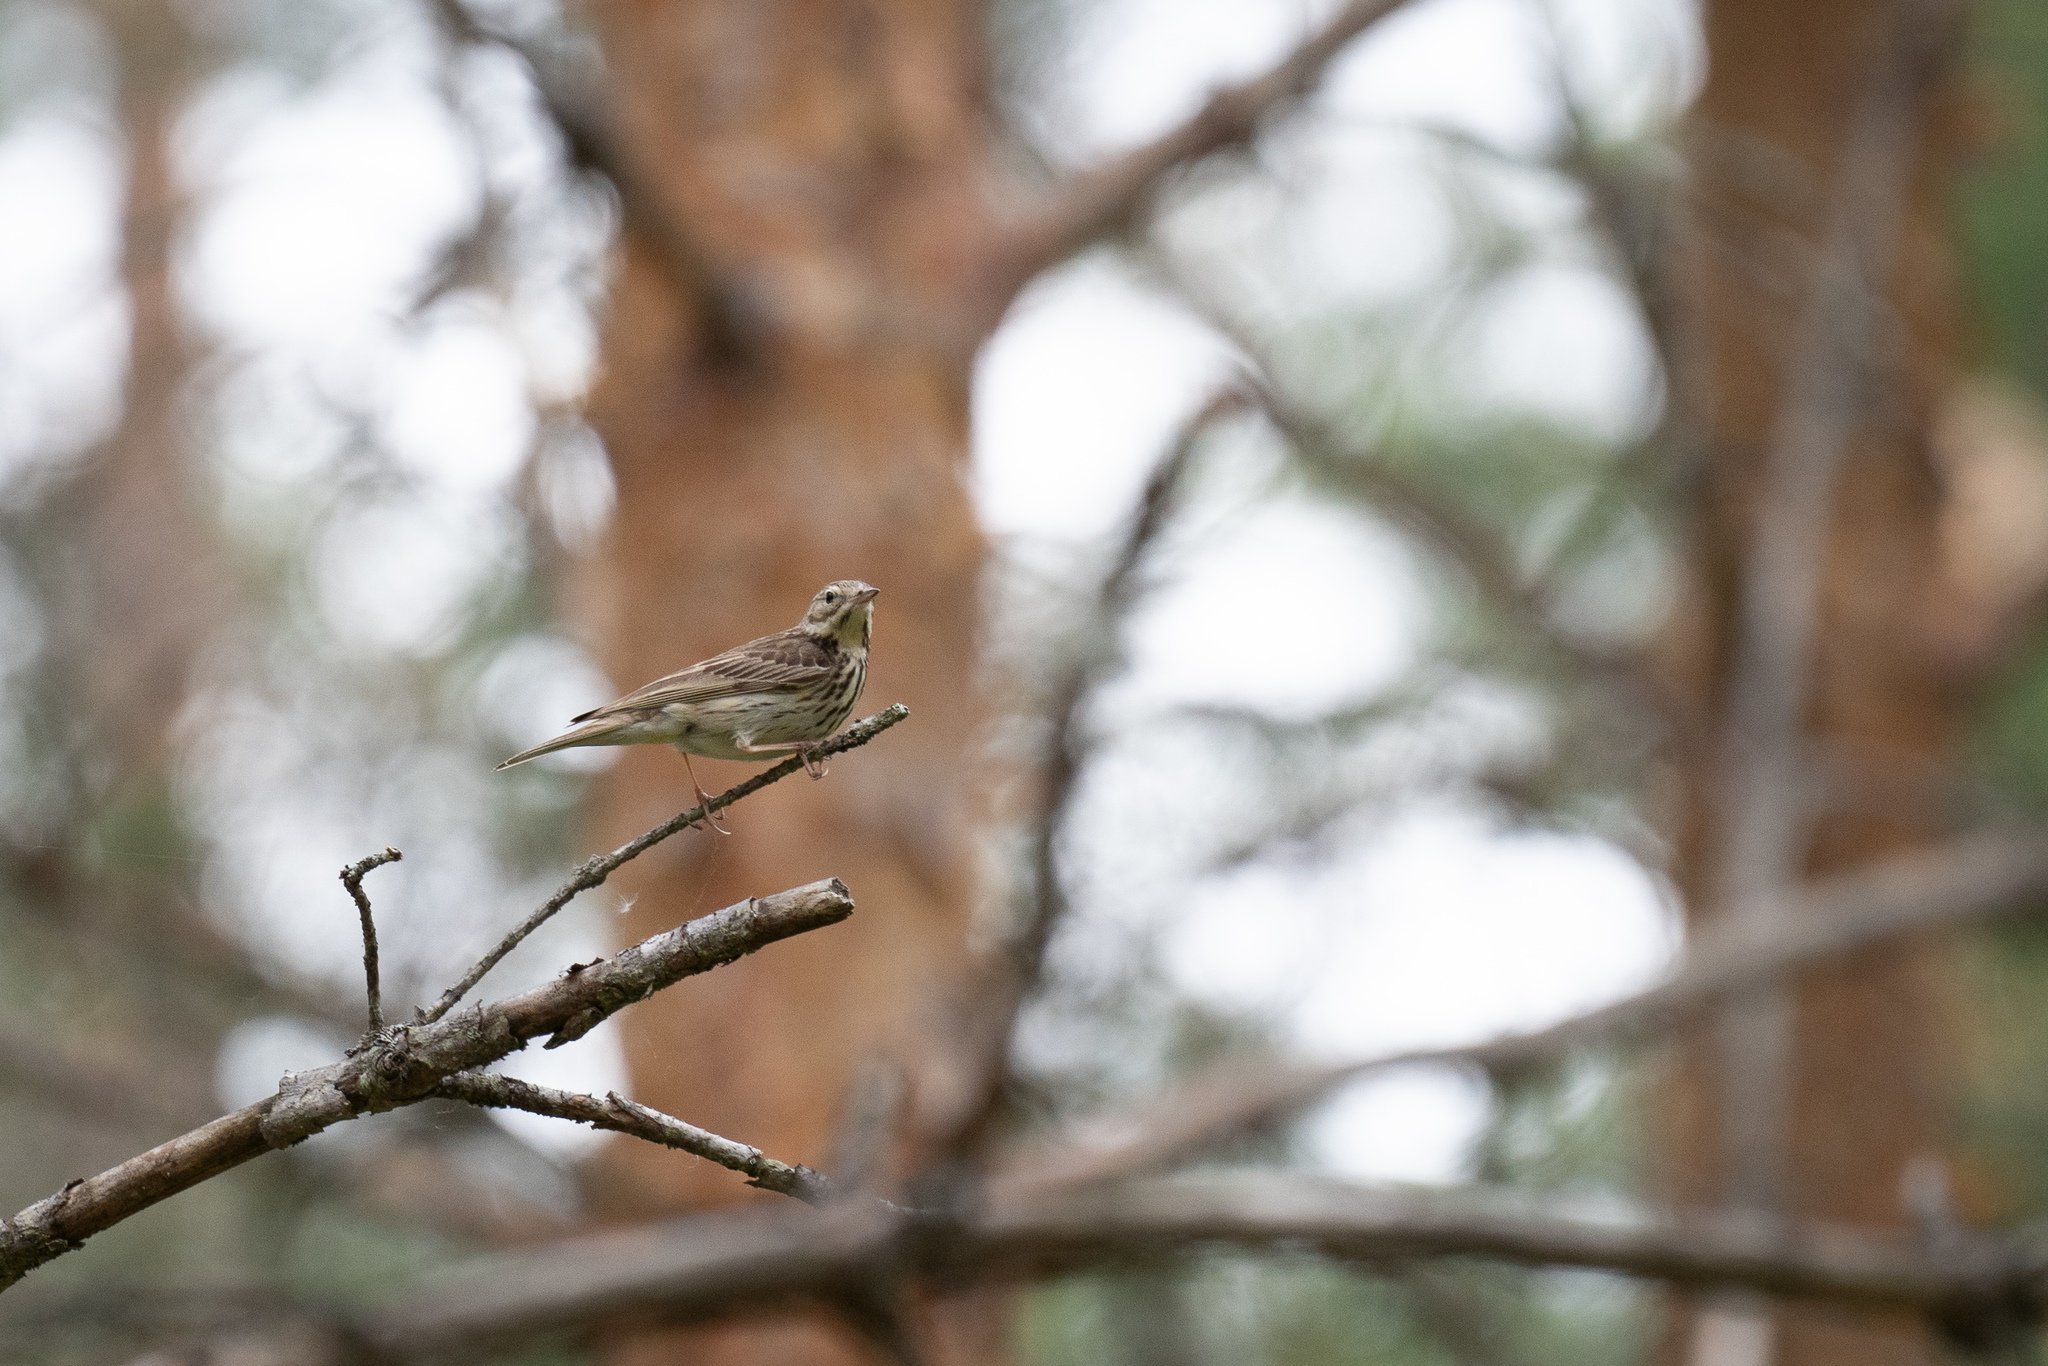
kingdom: Animalia
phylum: Chordata
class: Aves
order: Passeriformes
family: Motacillidae
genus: Anthus
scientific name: Anthus trivialis
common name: Tree pipit
